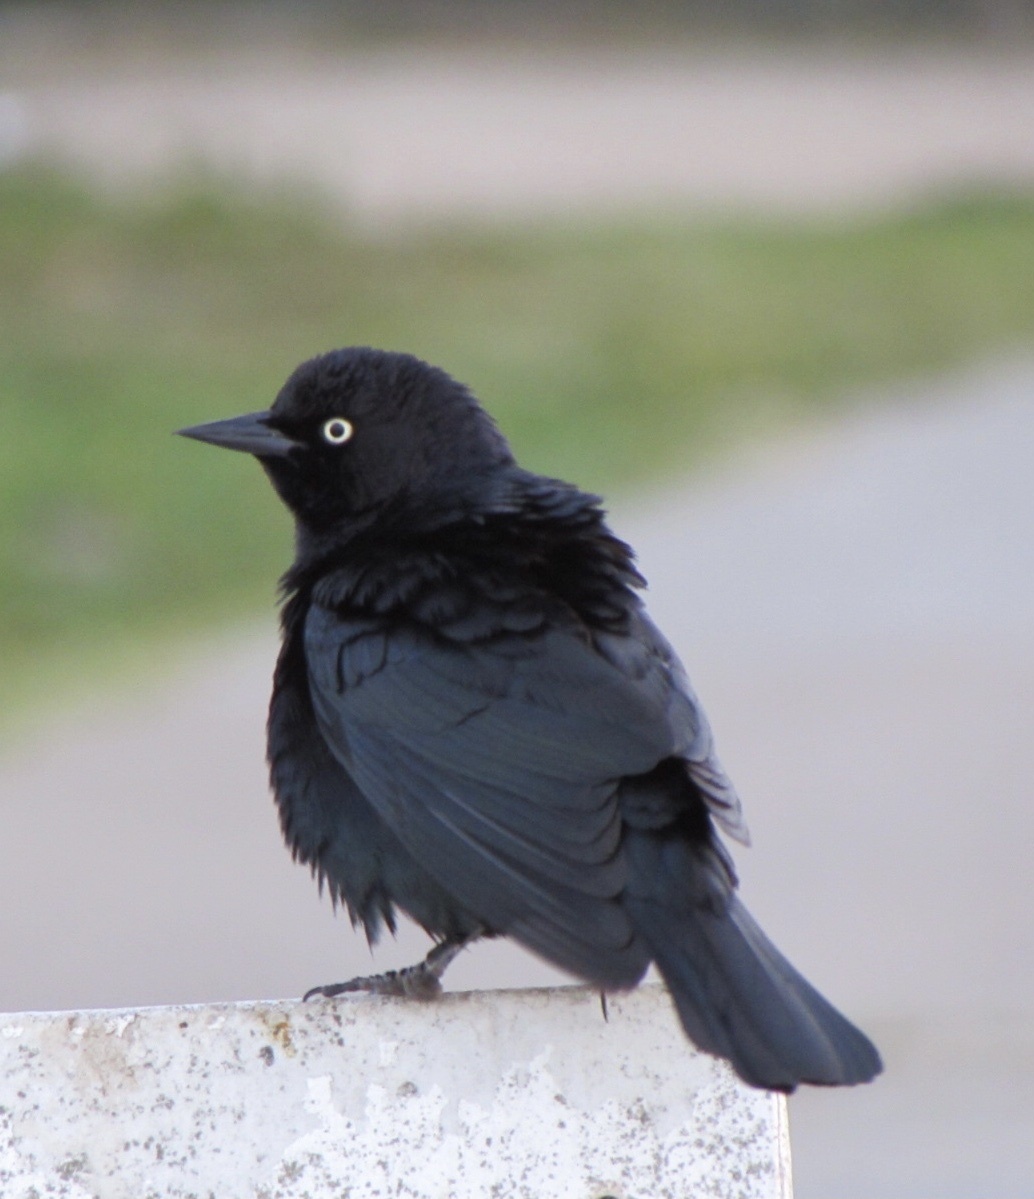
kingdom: Animalia
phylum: Chordata
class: Aves
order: Passeriformes
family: Icteridae
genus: Euphagus
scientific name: Euphagus cyanocephalus
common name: Brewer's blackbird
